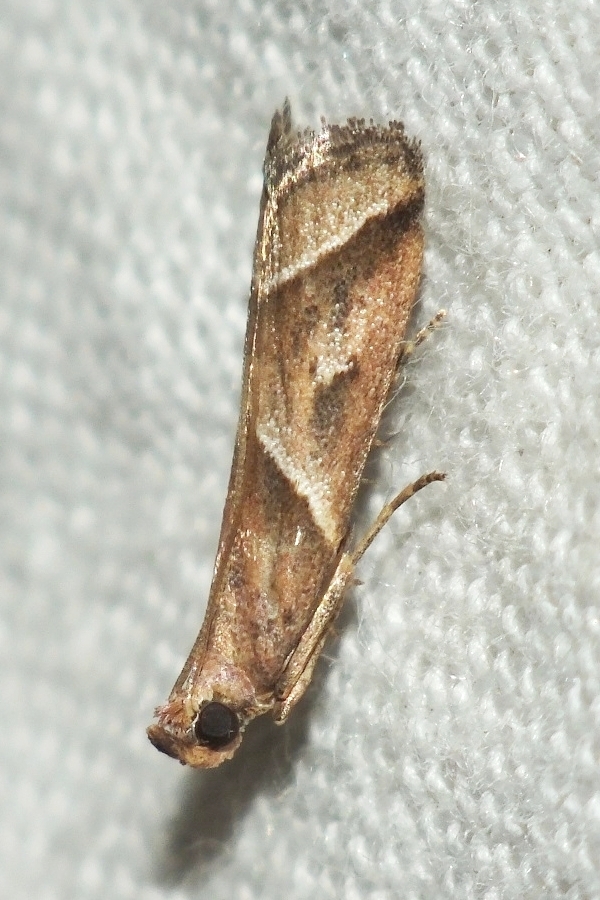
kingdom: Animalia
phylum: Arthropoda
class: Insecta
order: Lepidoptera
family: Pyralidae
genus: Nyctegretis
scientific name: Nyctegretis lineana
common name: Agate knot-horn
